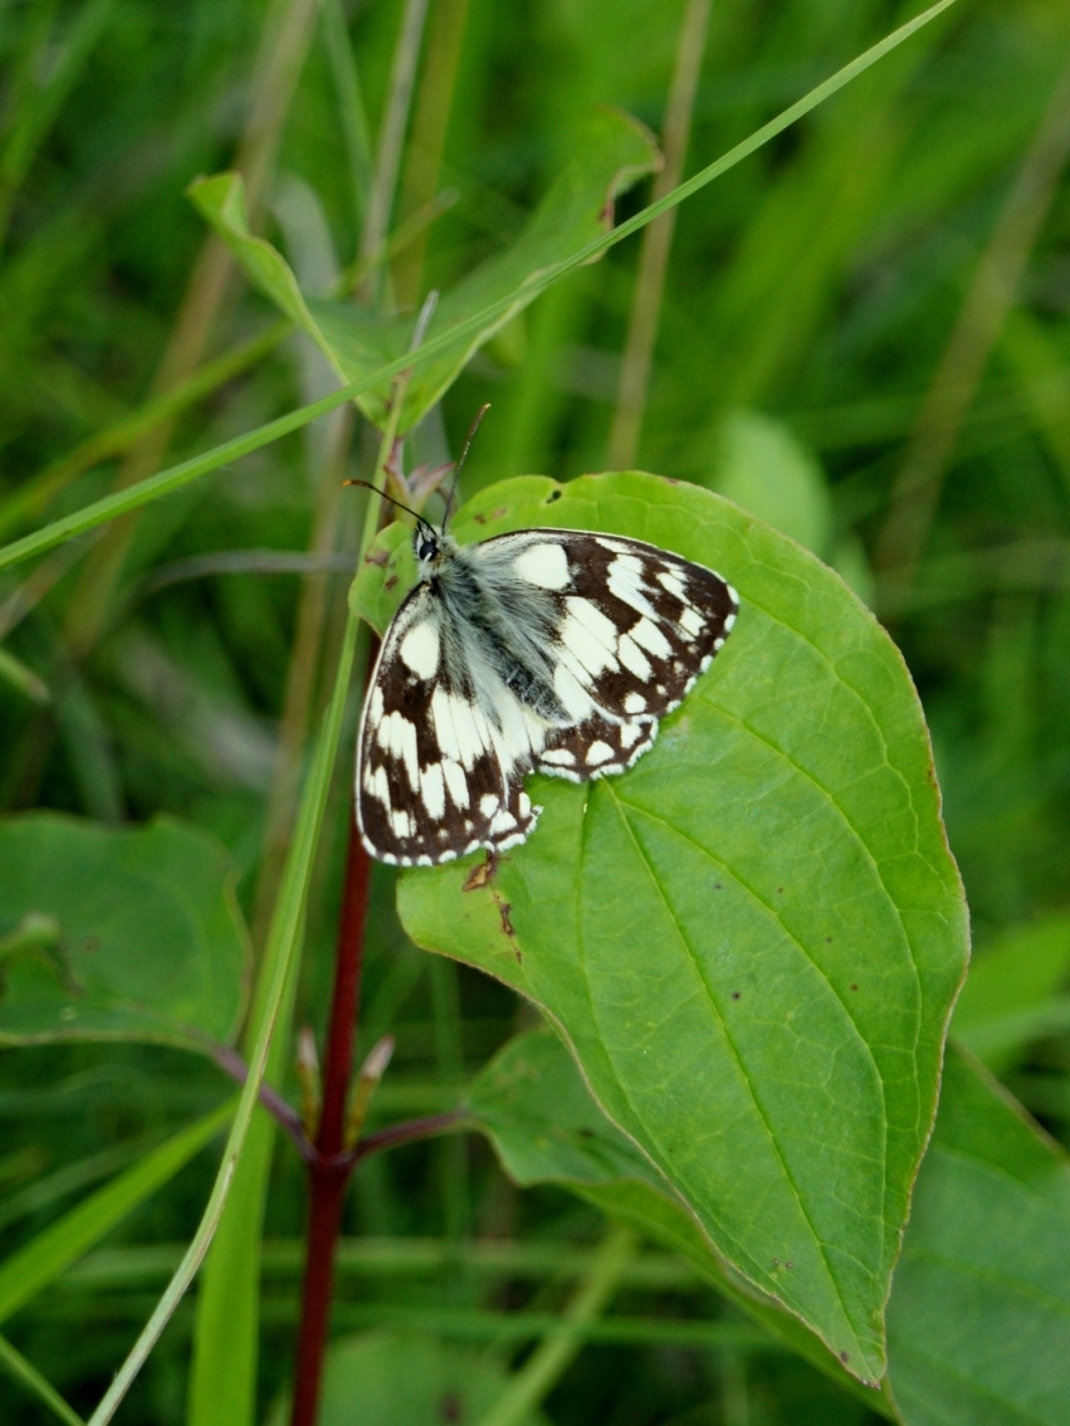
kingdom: Animalia
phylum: Arthropoda
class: Insecta
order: Lepidoptera
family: Nymphalidae
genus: Melanargia
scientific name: Melanargia galathea
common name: Marbled white
